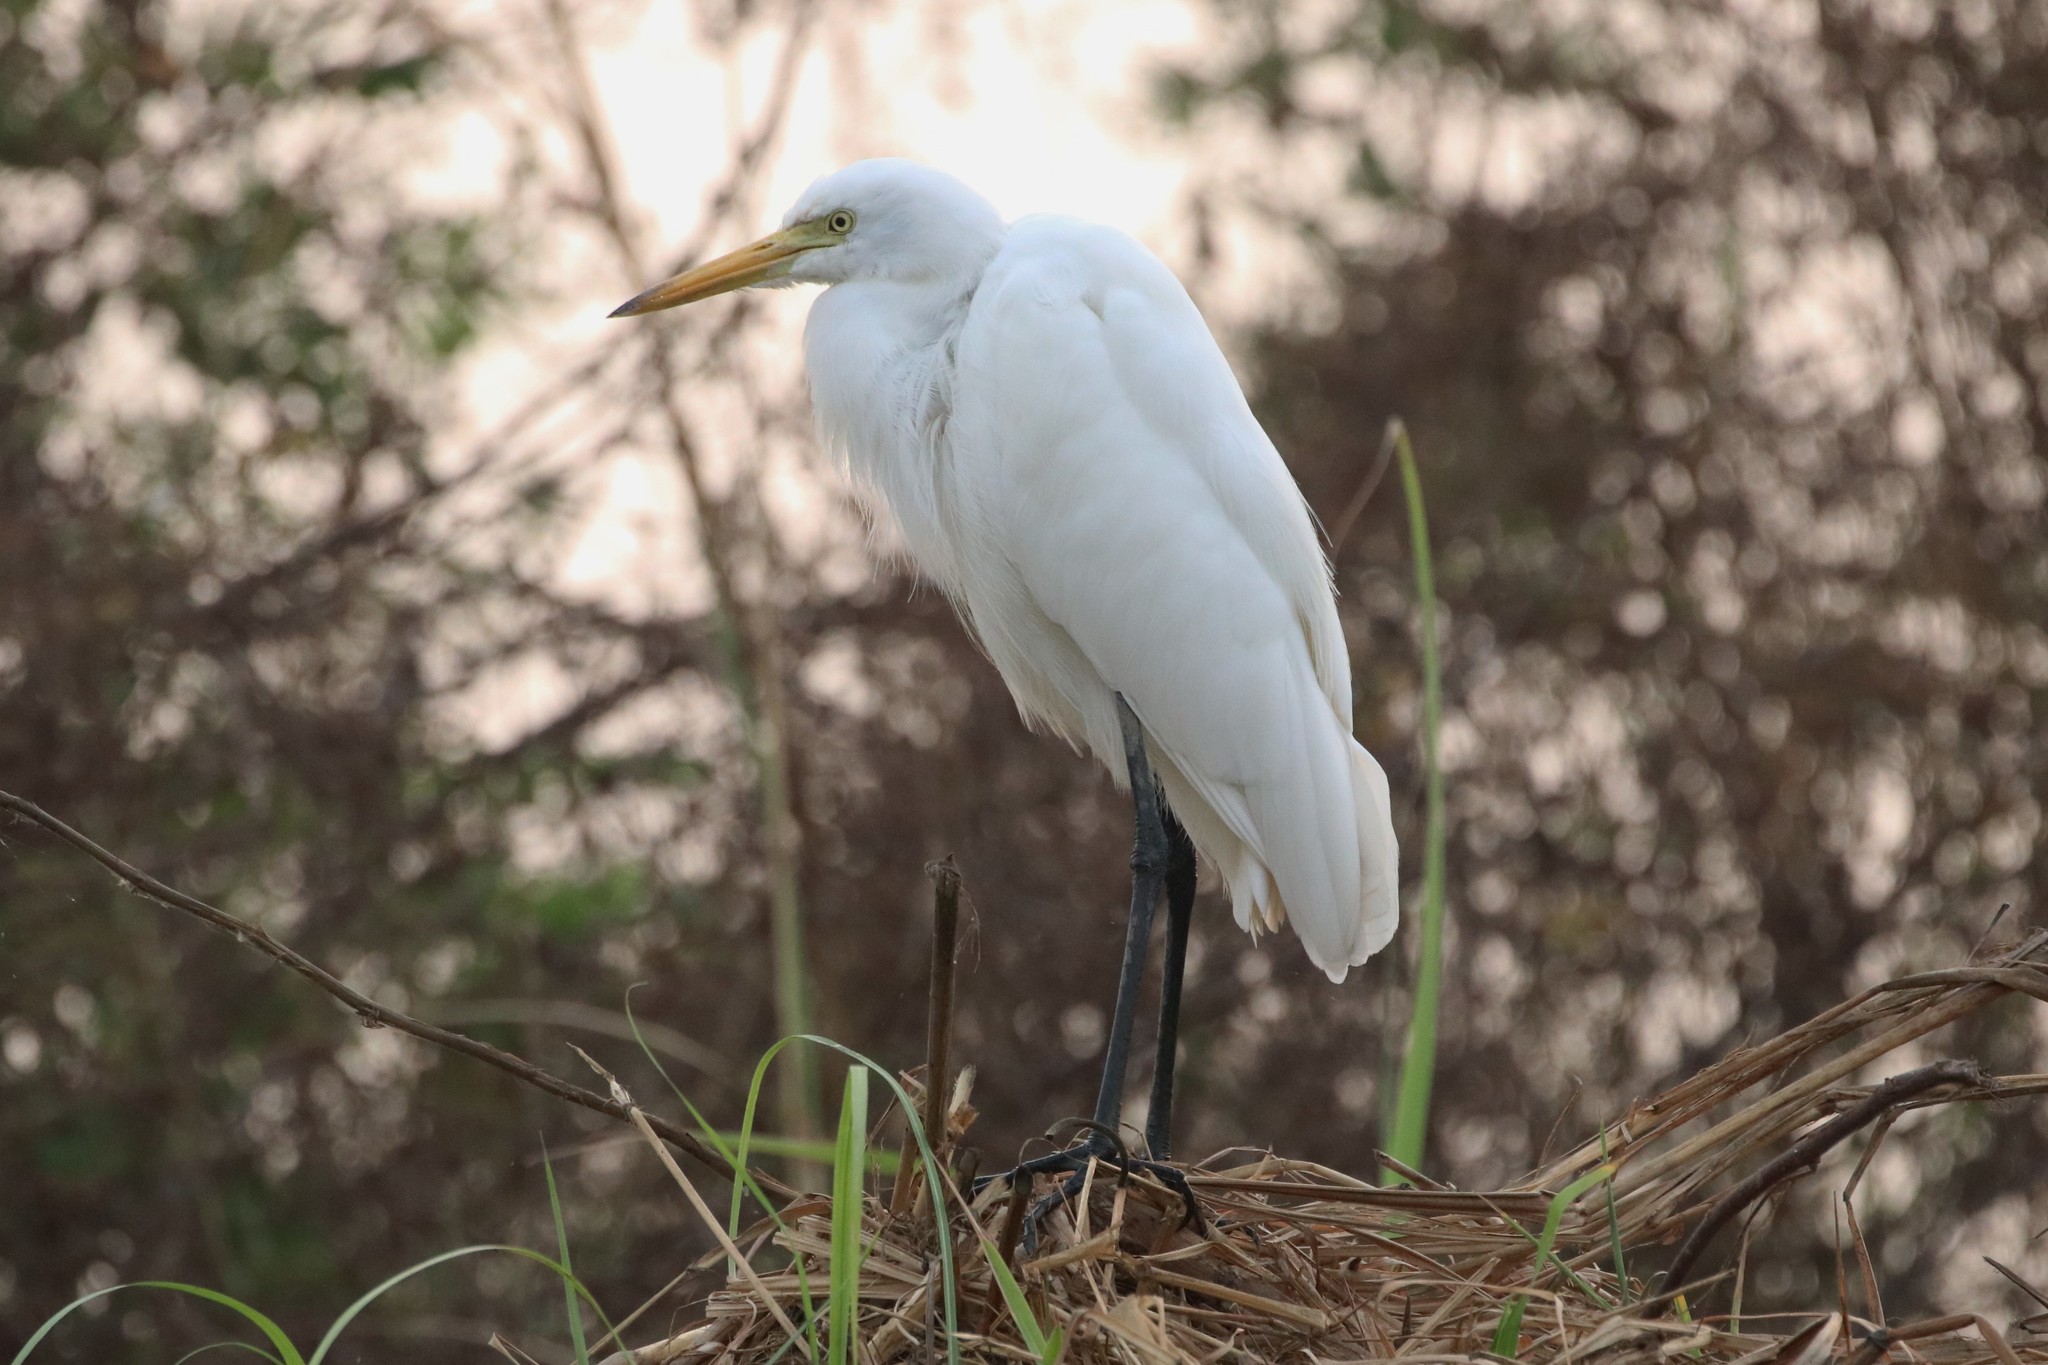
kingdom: Animalia
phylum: Chordata
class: Aves
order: Pelecaniformes
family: Ardeidae
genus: Egretta
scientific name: Egretta intermedia
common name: Intermediate egret
